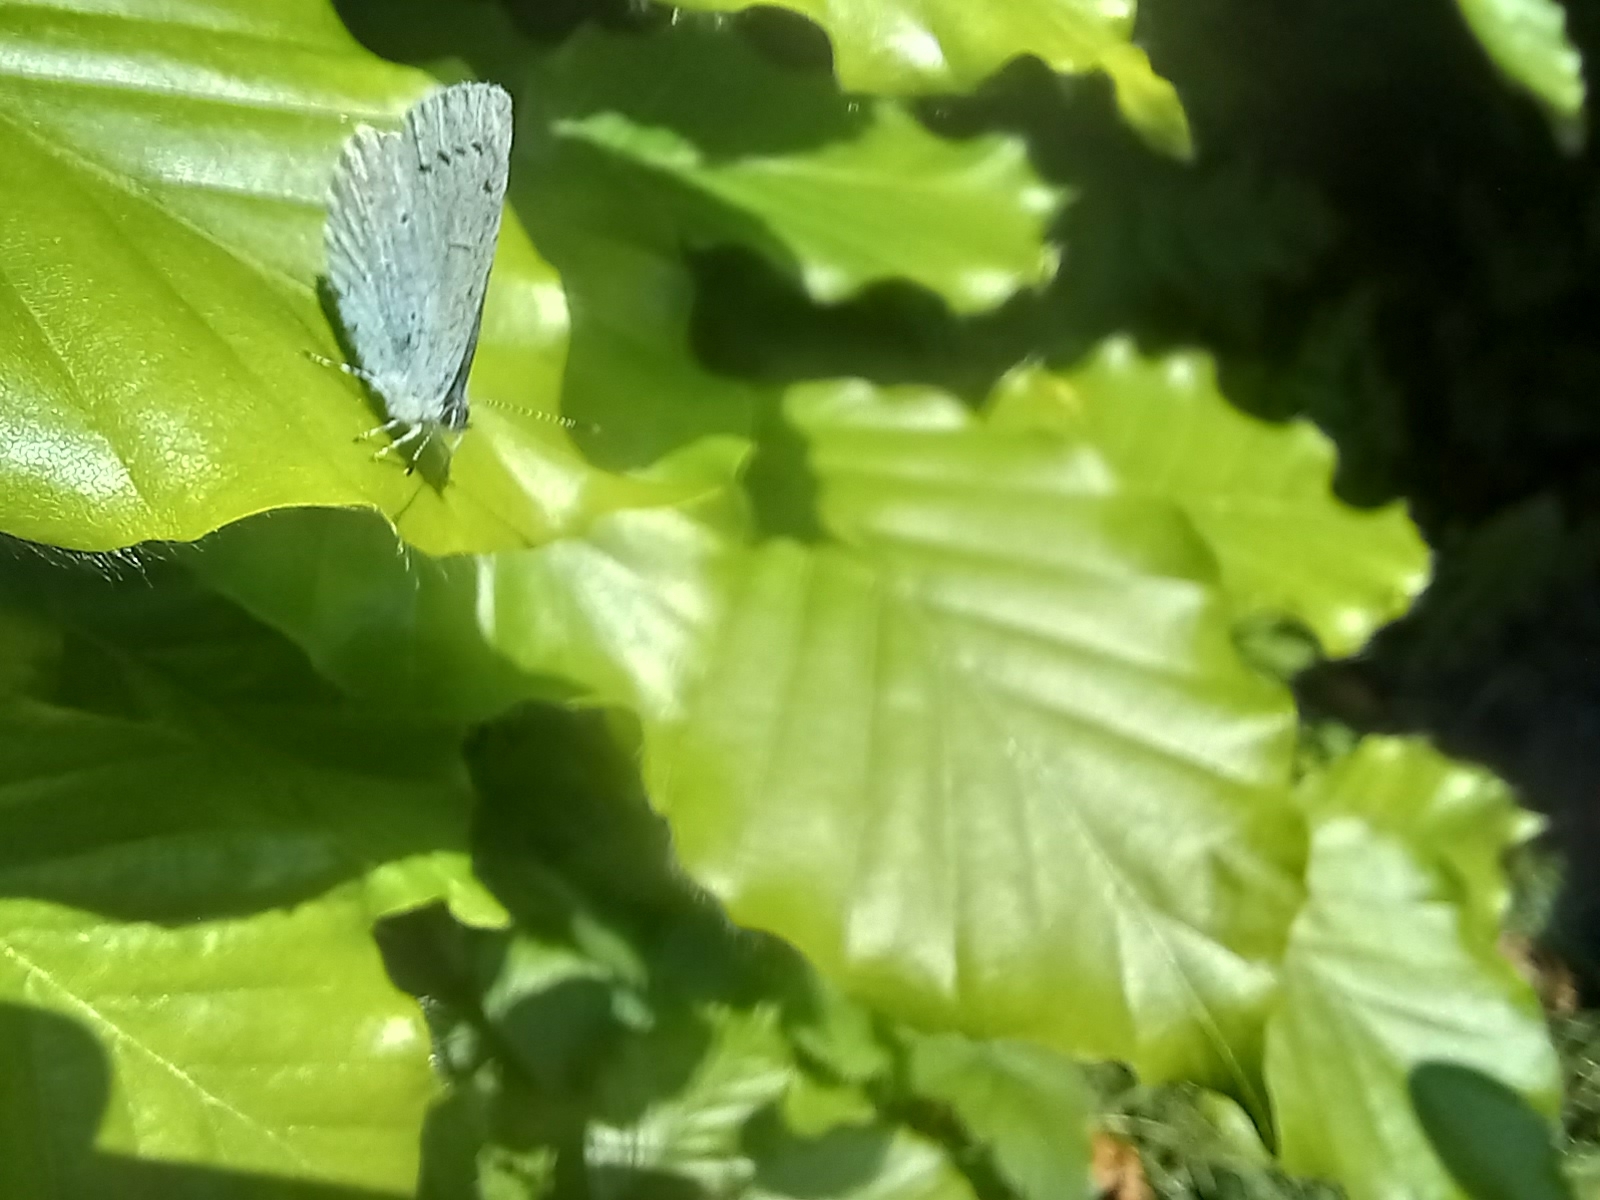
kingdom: Animalia
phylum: Arthropoda
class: Insecta
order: Lepidoptera
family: Lycaenidae
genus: Celastrina
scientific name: Celastrina argiolus
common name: Holly blue
